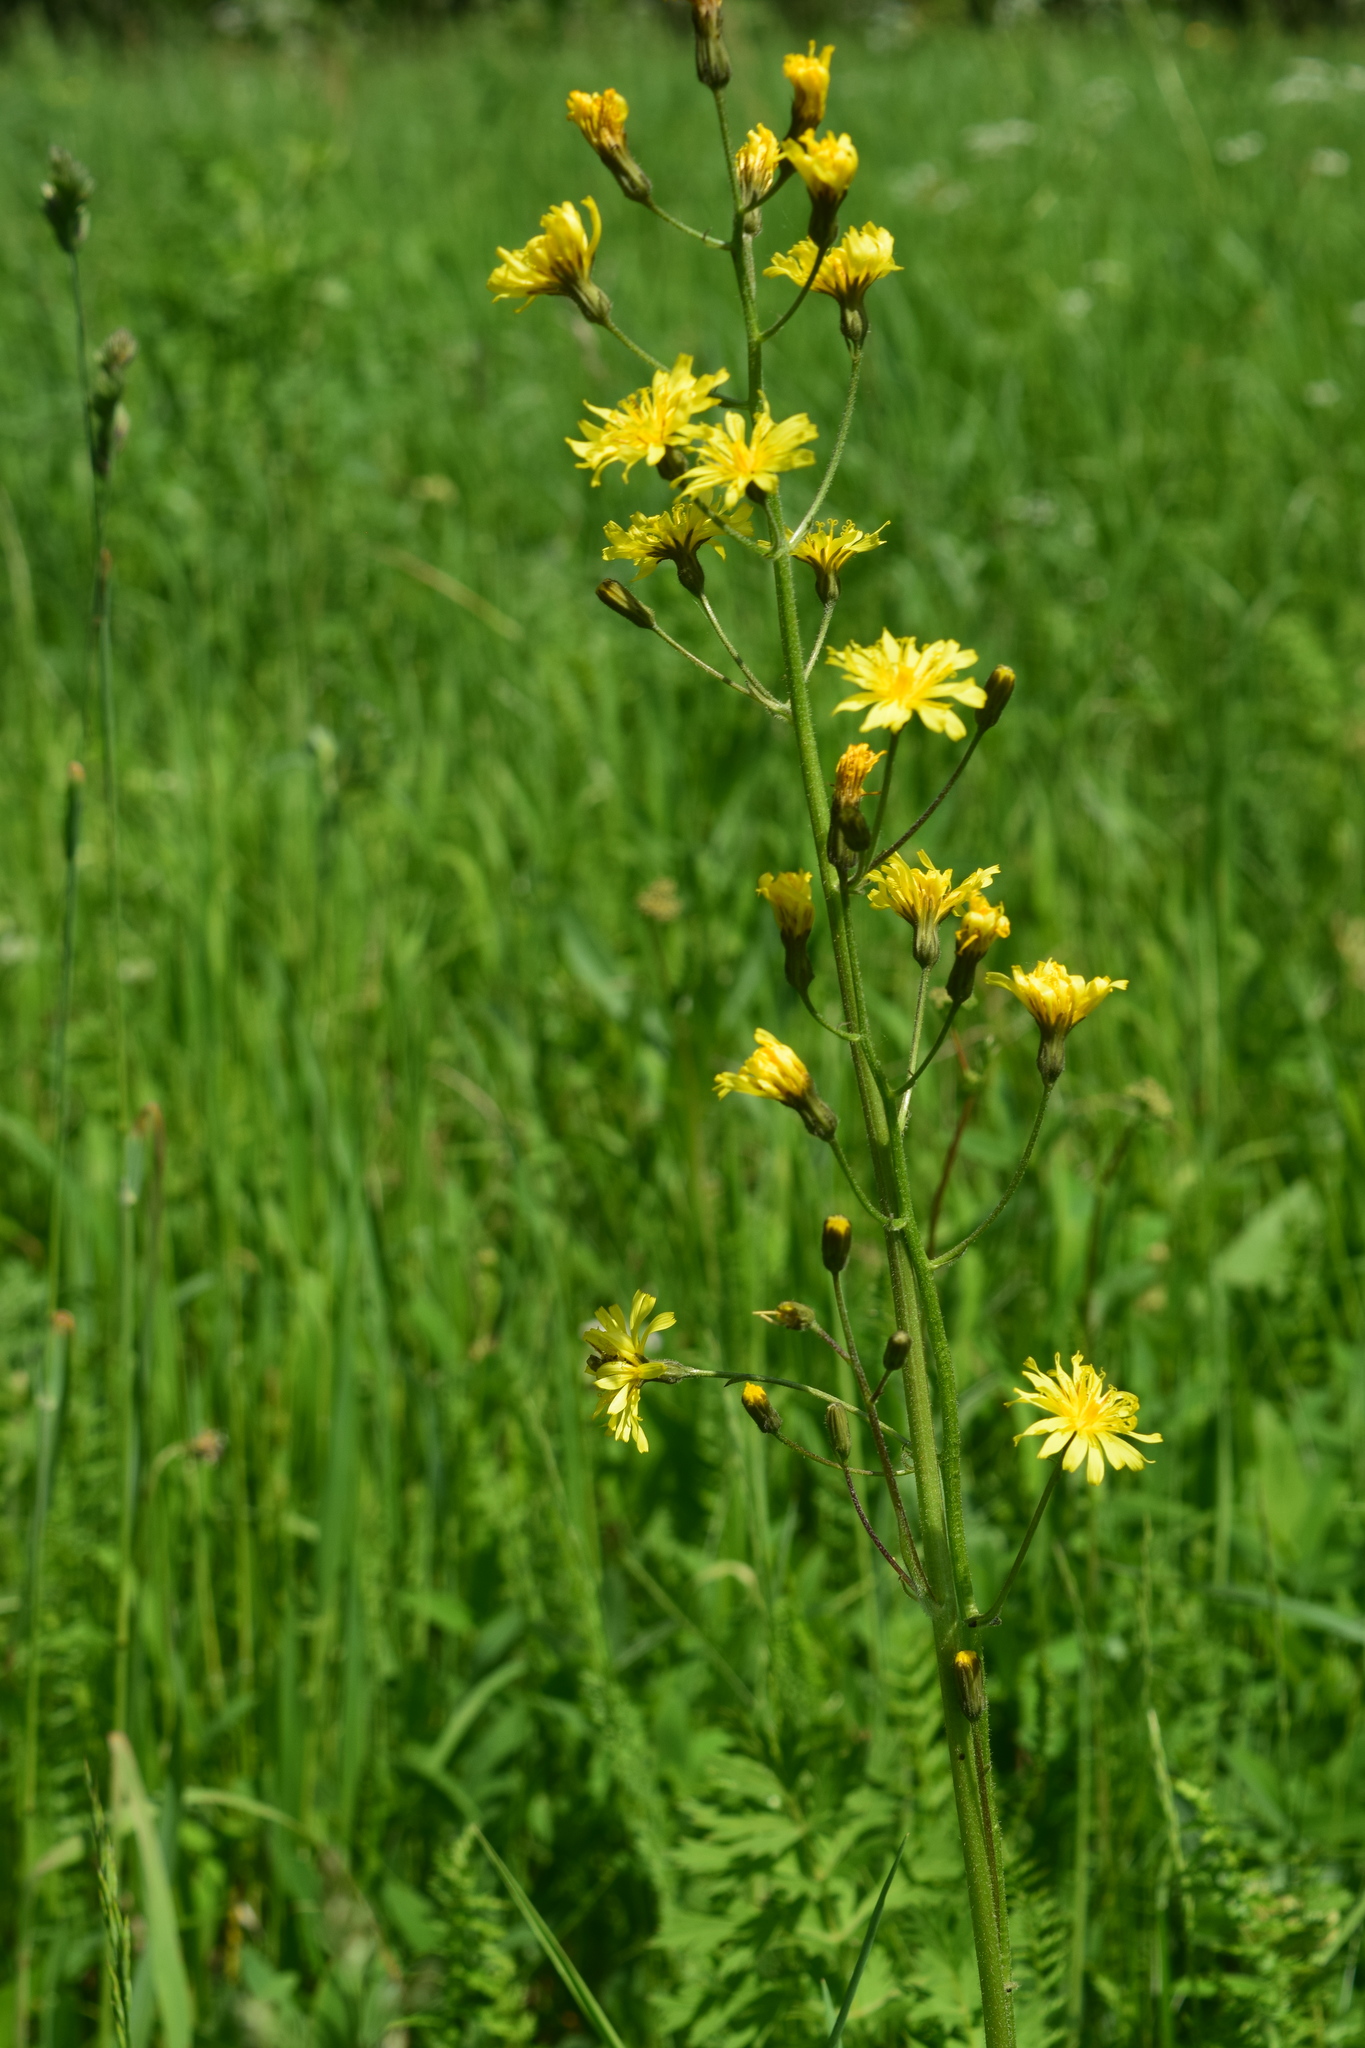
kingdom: Plantae
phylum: Tracheophyta
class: Magnoliopsida
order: Asterales
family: Asteraceae
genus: Crepis
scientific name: Crepis praemorsa
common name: Leafless hawk's-beard
